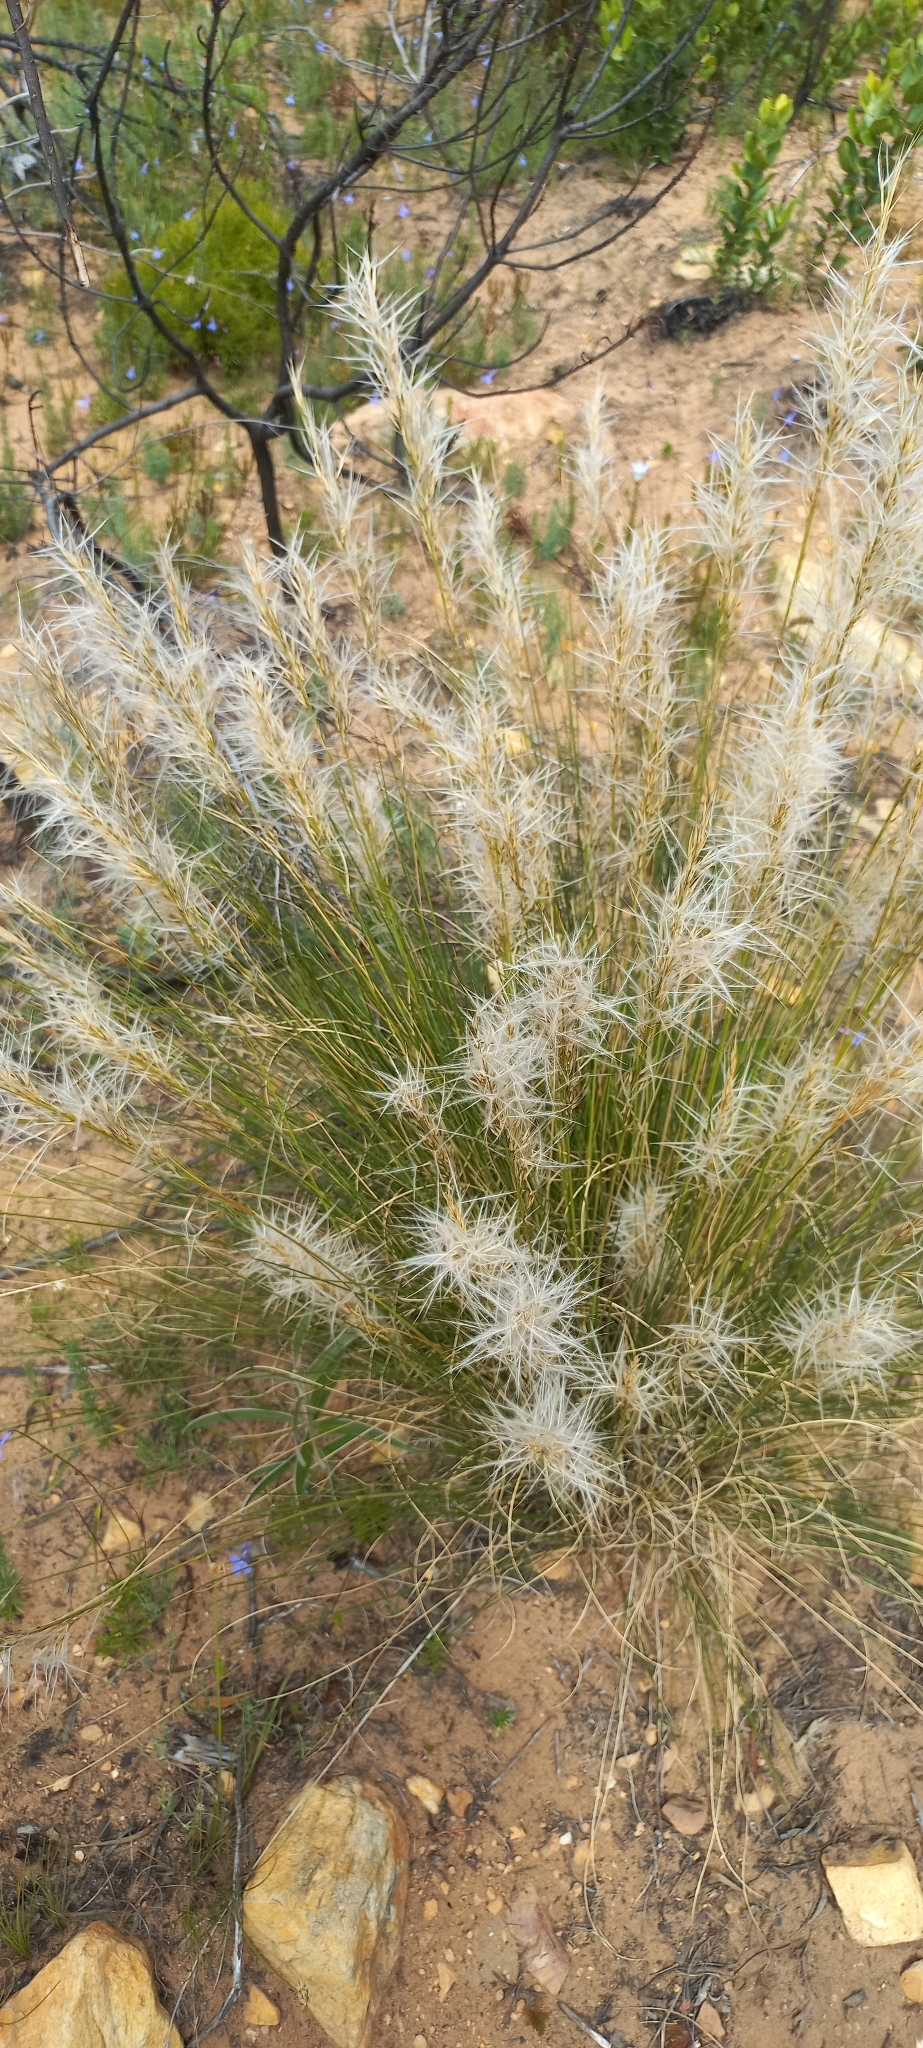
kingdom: Plantae
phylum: Tracheophyta
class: Liliopsida
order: Poales
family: Poaceae
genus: Stipagrostis
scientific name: Stipagrostis zeyheri
